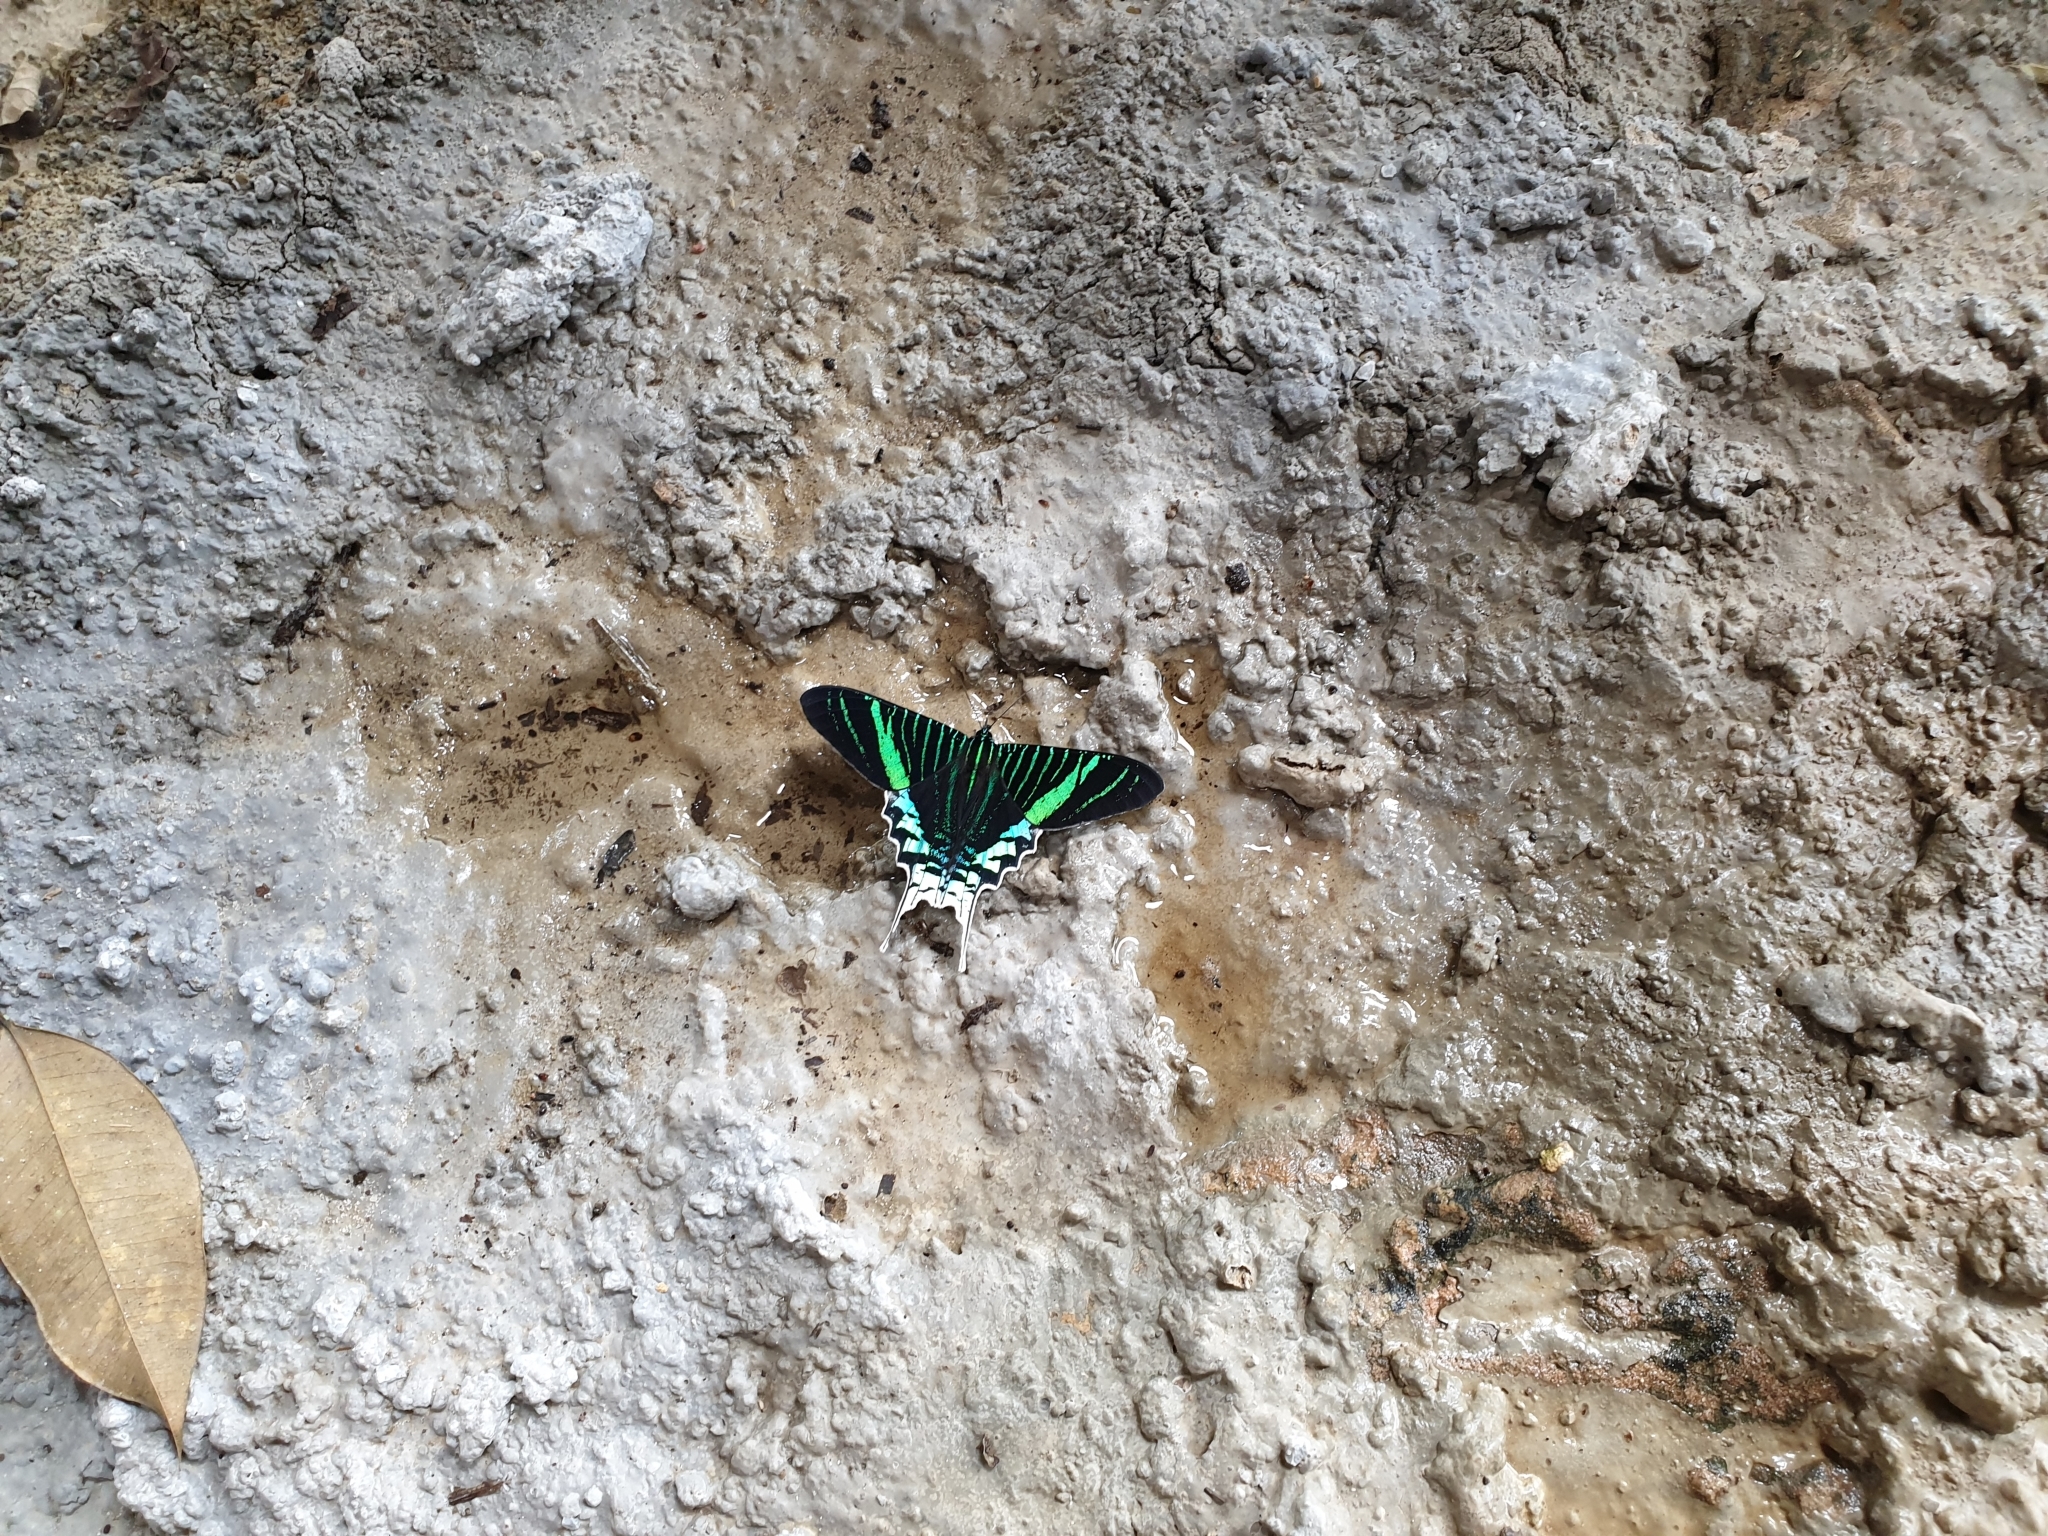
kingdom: Animalia
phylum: Arthropoda
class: Insecta
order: Lepidoptera
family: Uraniidae
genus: Urania
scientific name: Urania leilus
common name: Peacock moth
